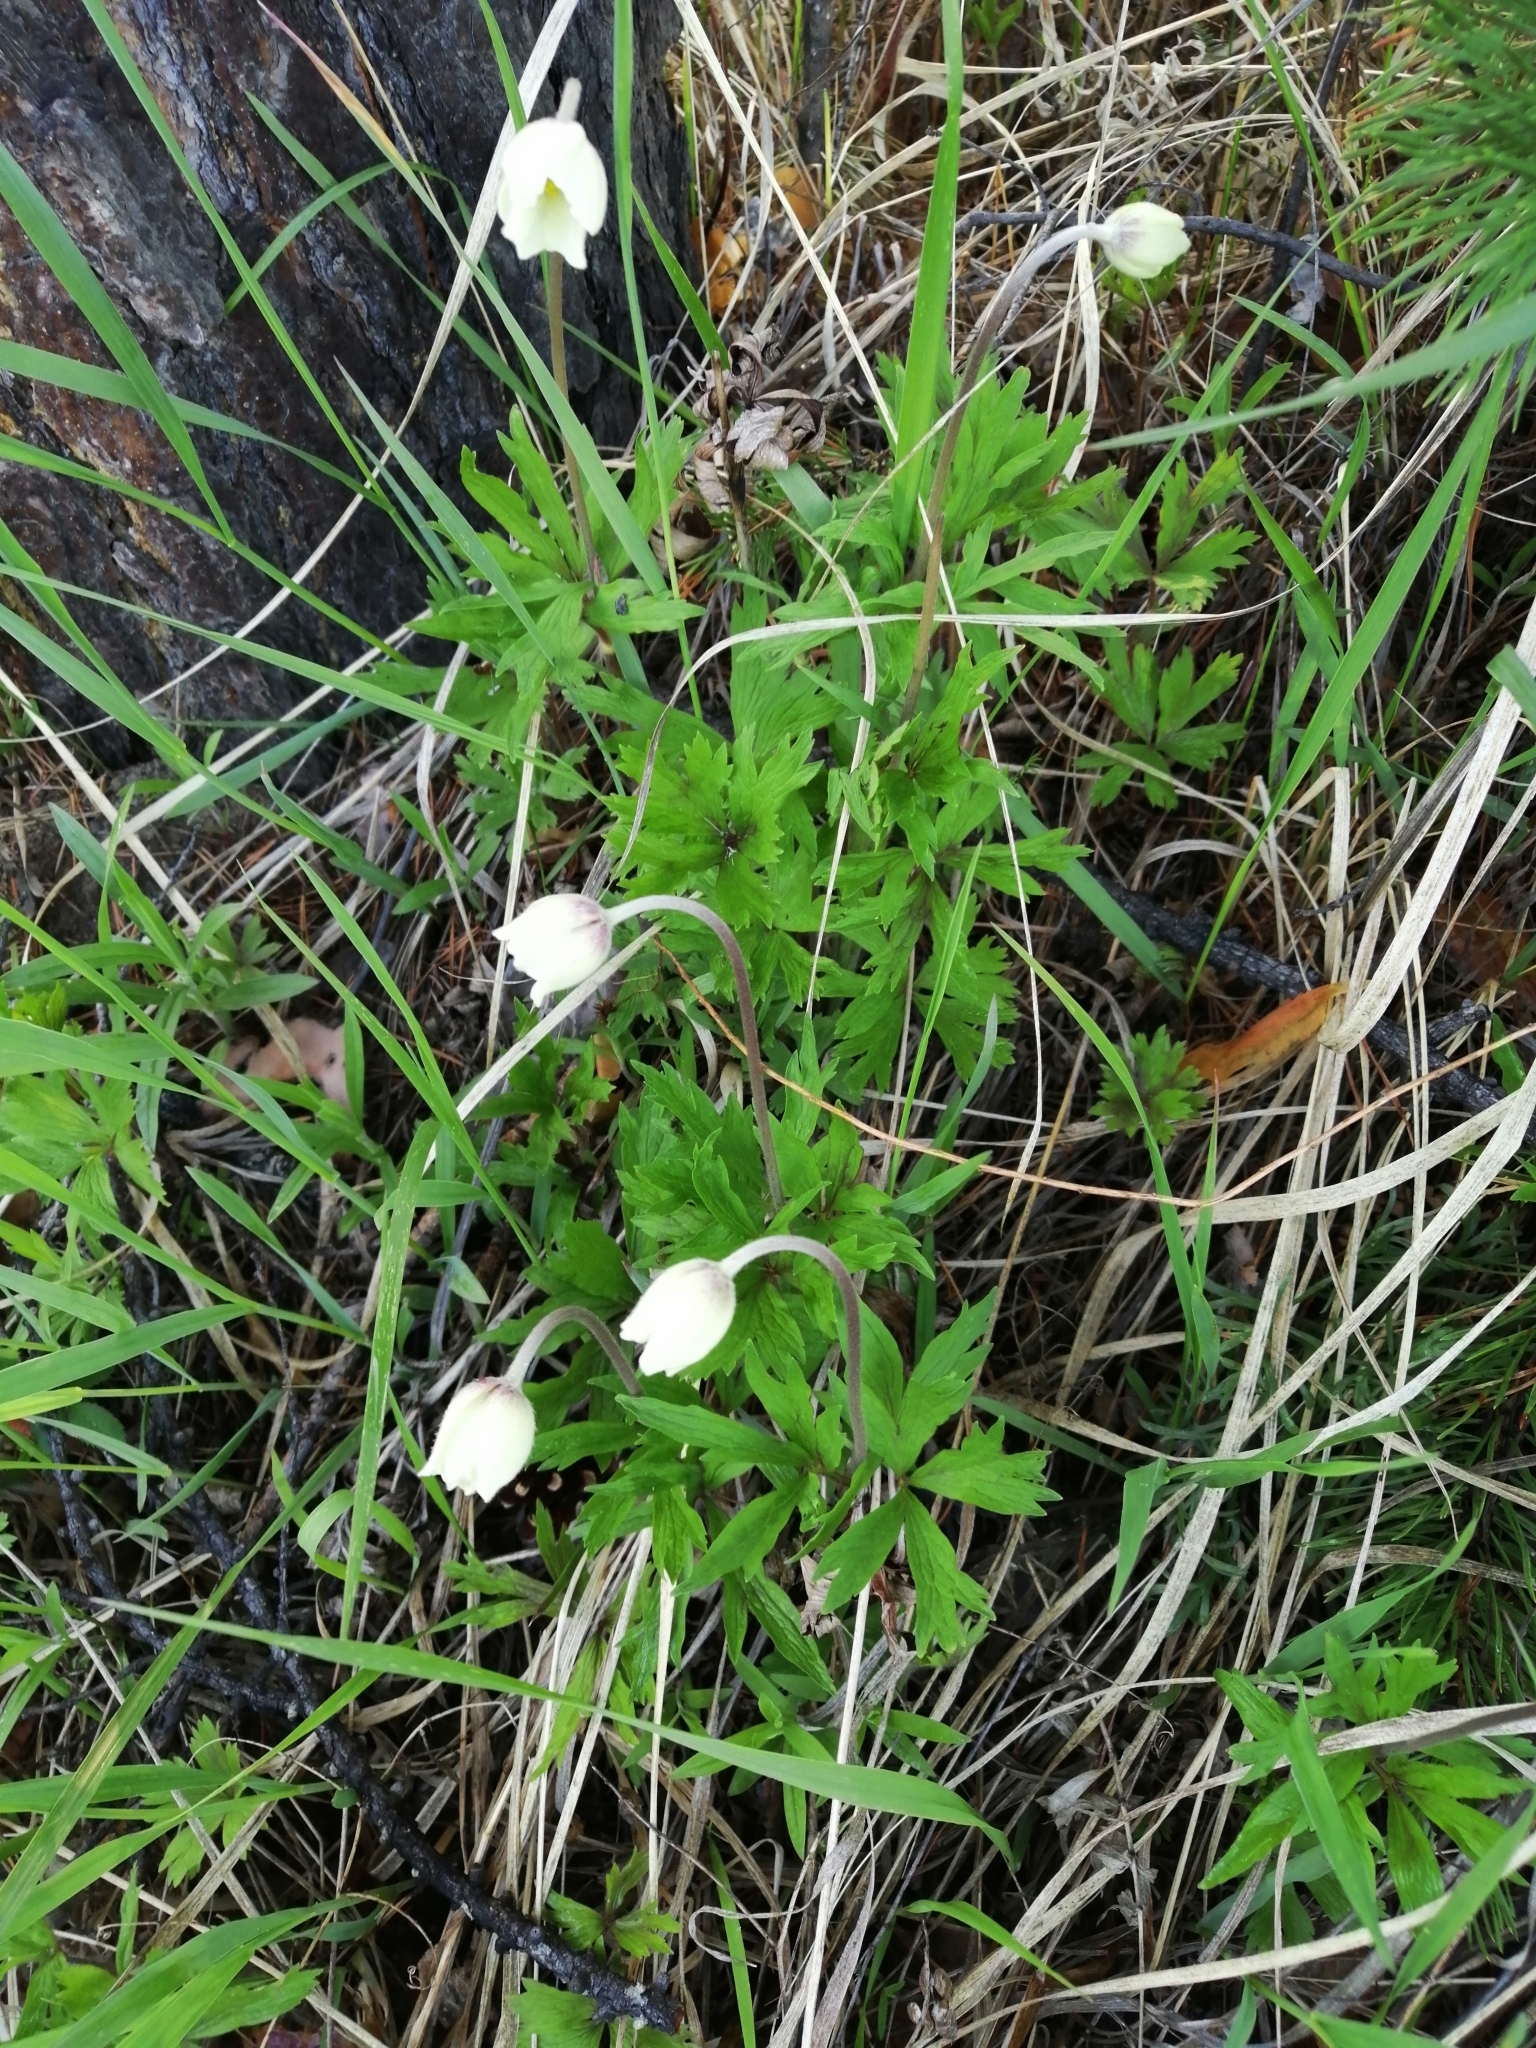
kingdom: Plantae
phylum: Tracheophyta
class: Magnoliopsida
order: Ranunculales
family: Ranunculaceae
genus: Anemone
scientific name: Anemone sylvestris
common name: Snowdrop anemone
